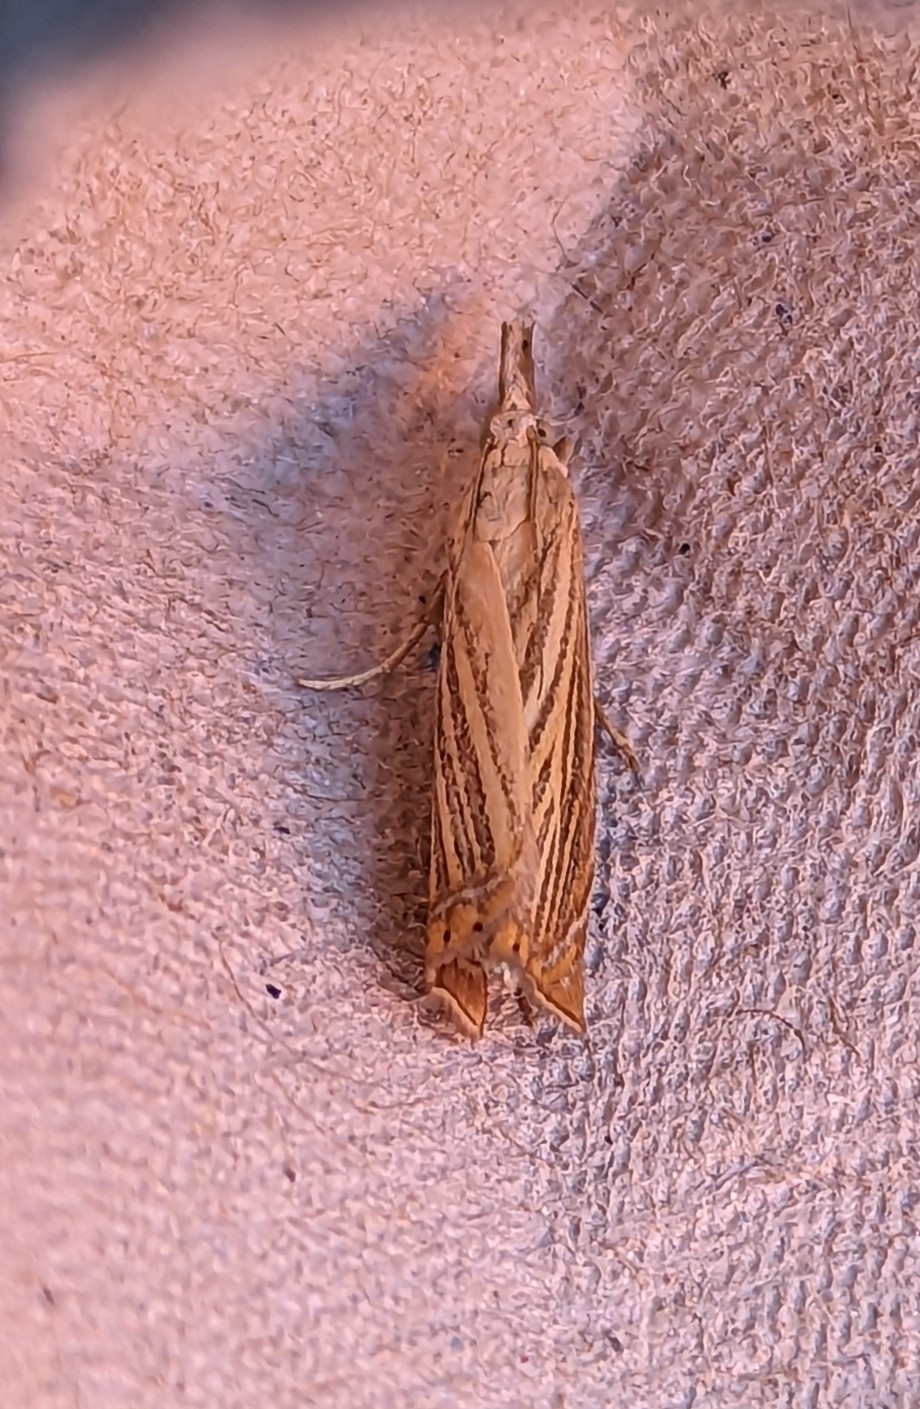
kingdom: Animalia
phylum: Arthropoda
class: Insecta
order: Lepidoptera
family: Crambidae
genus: Chrysoteuchia
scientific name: Chrysoteuchia culmella
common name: Garden grass-veneer
